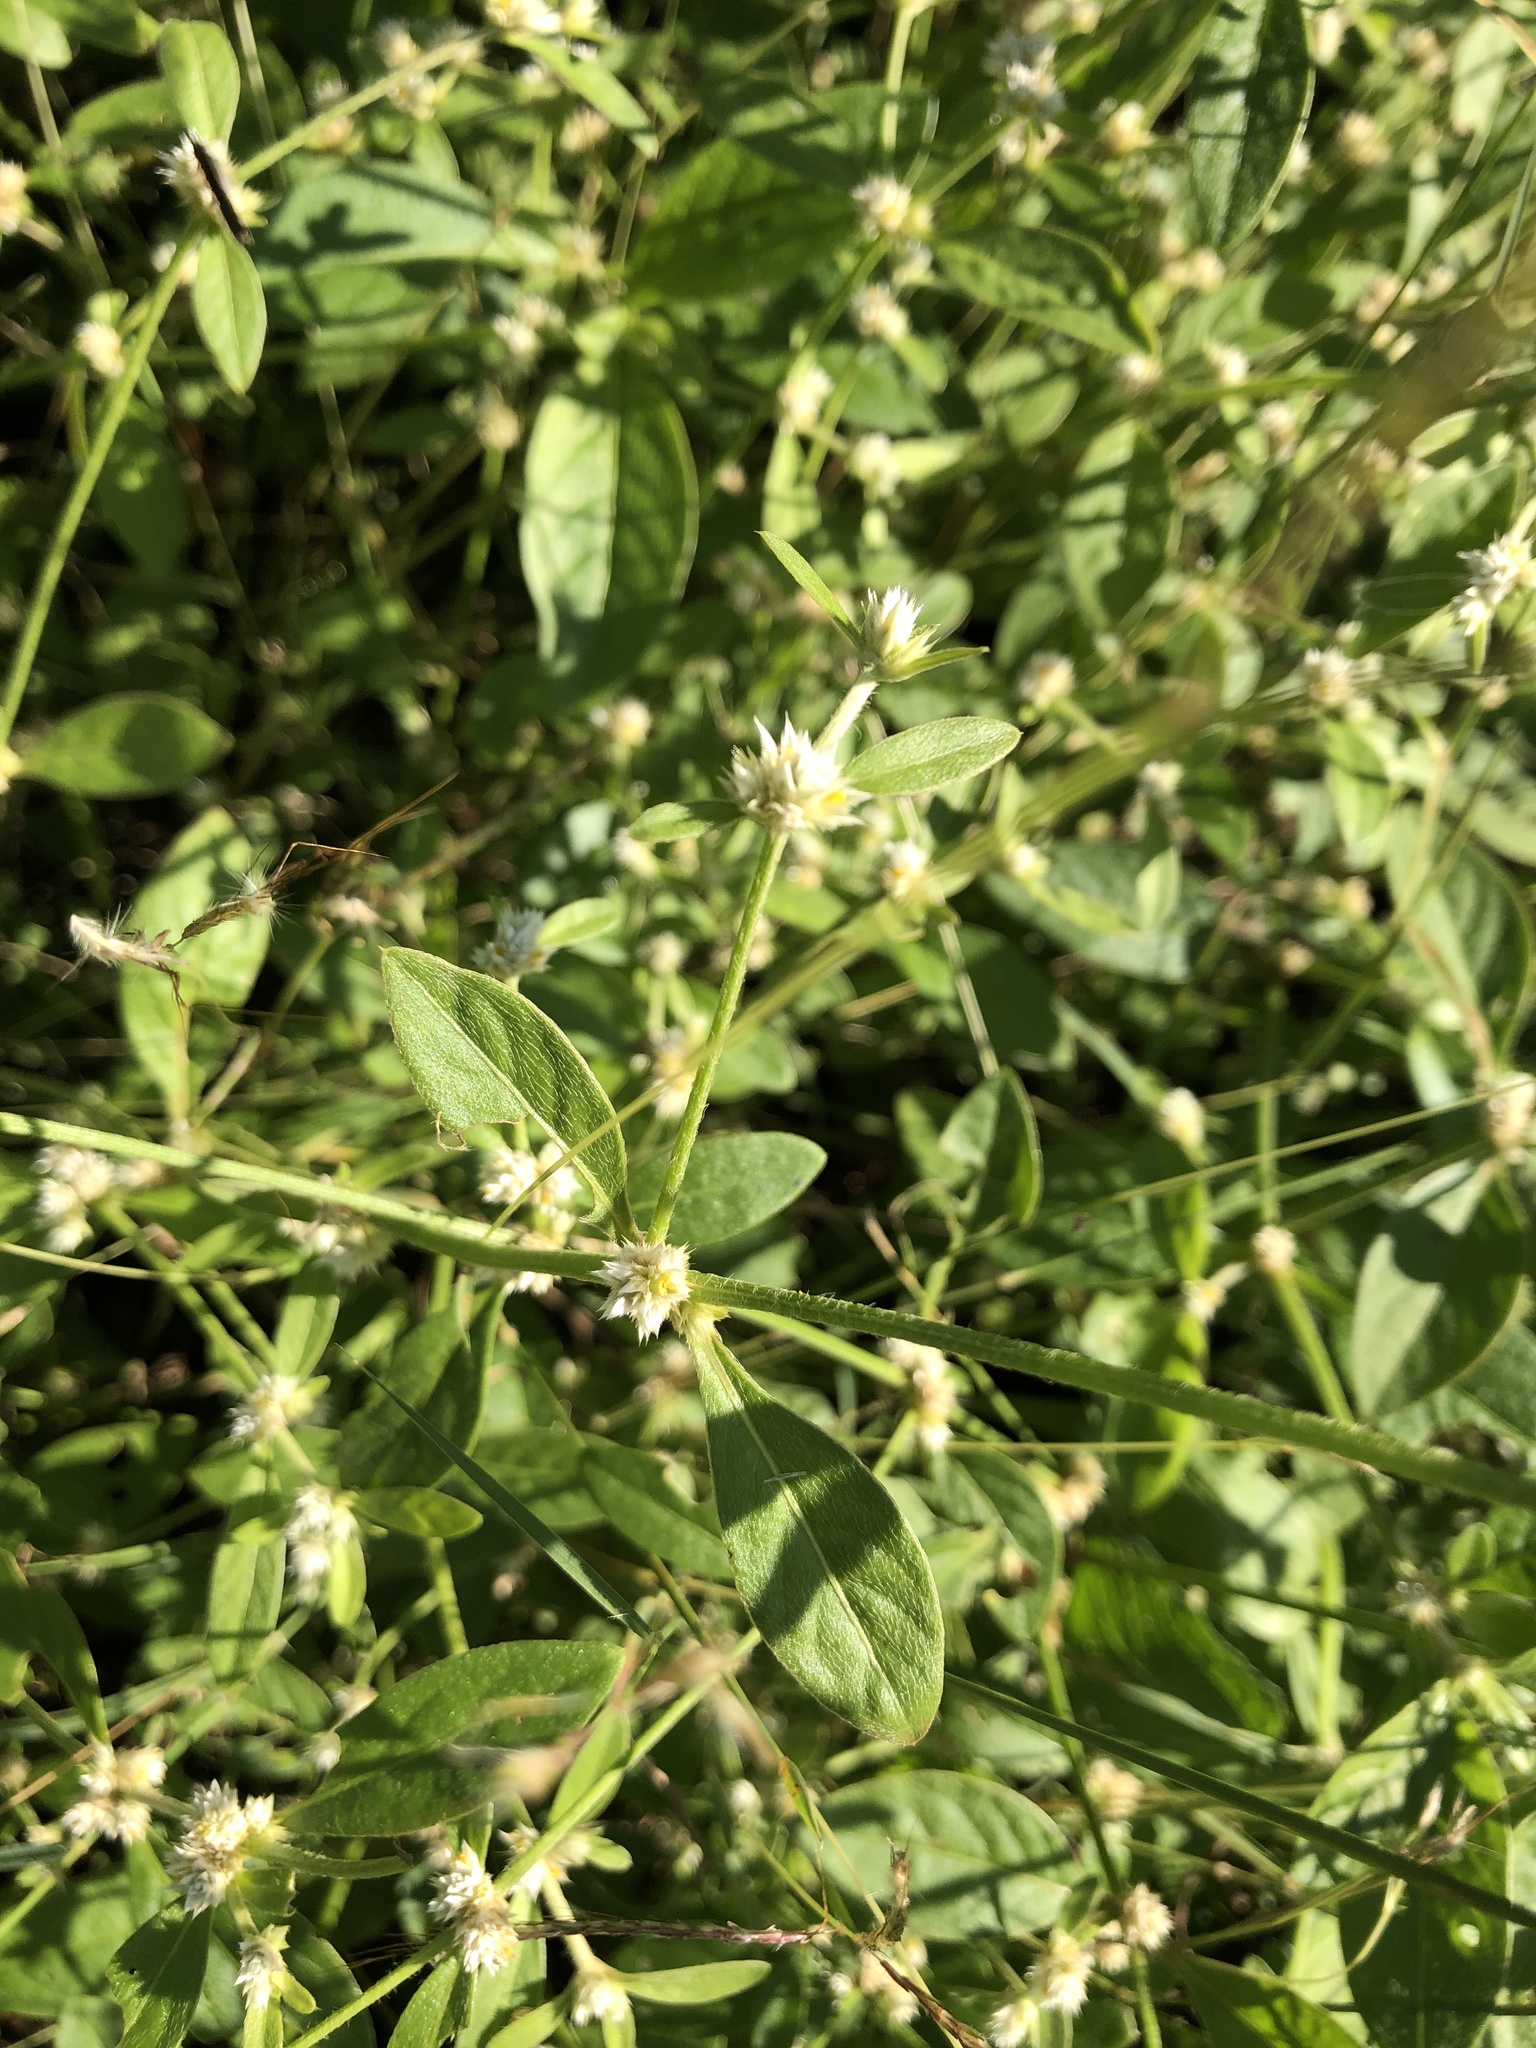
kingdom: Plantae
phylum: Tracheophyta
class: Magnoliopsida
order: Caryophyllales
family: Amaranthaceae
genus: Alternanthera
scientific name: Alternanthera ficoidea
